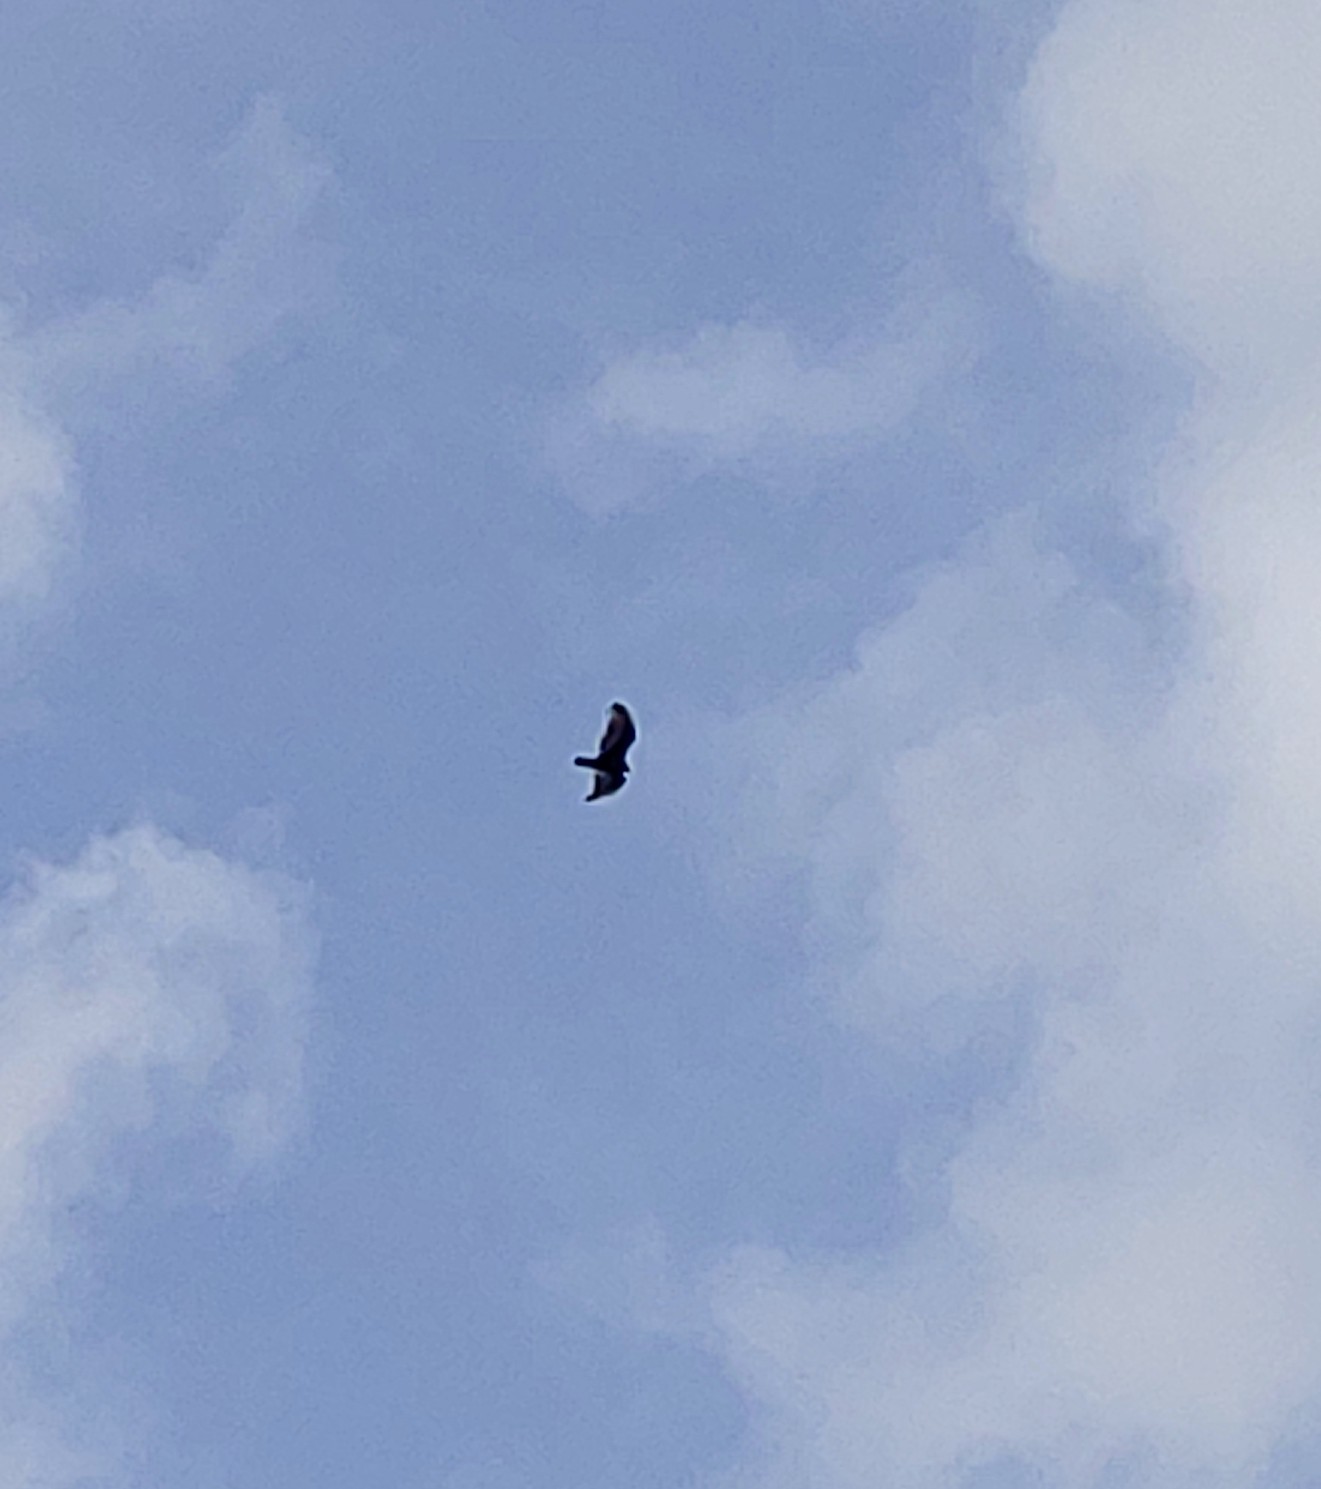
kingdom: Animalia
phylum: Chordata
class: Aves
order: Accipitriformes
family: Cathartidae
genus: Cathartes
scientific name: Cathartes aura
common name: Turkey vulture
